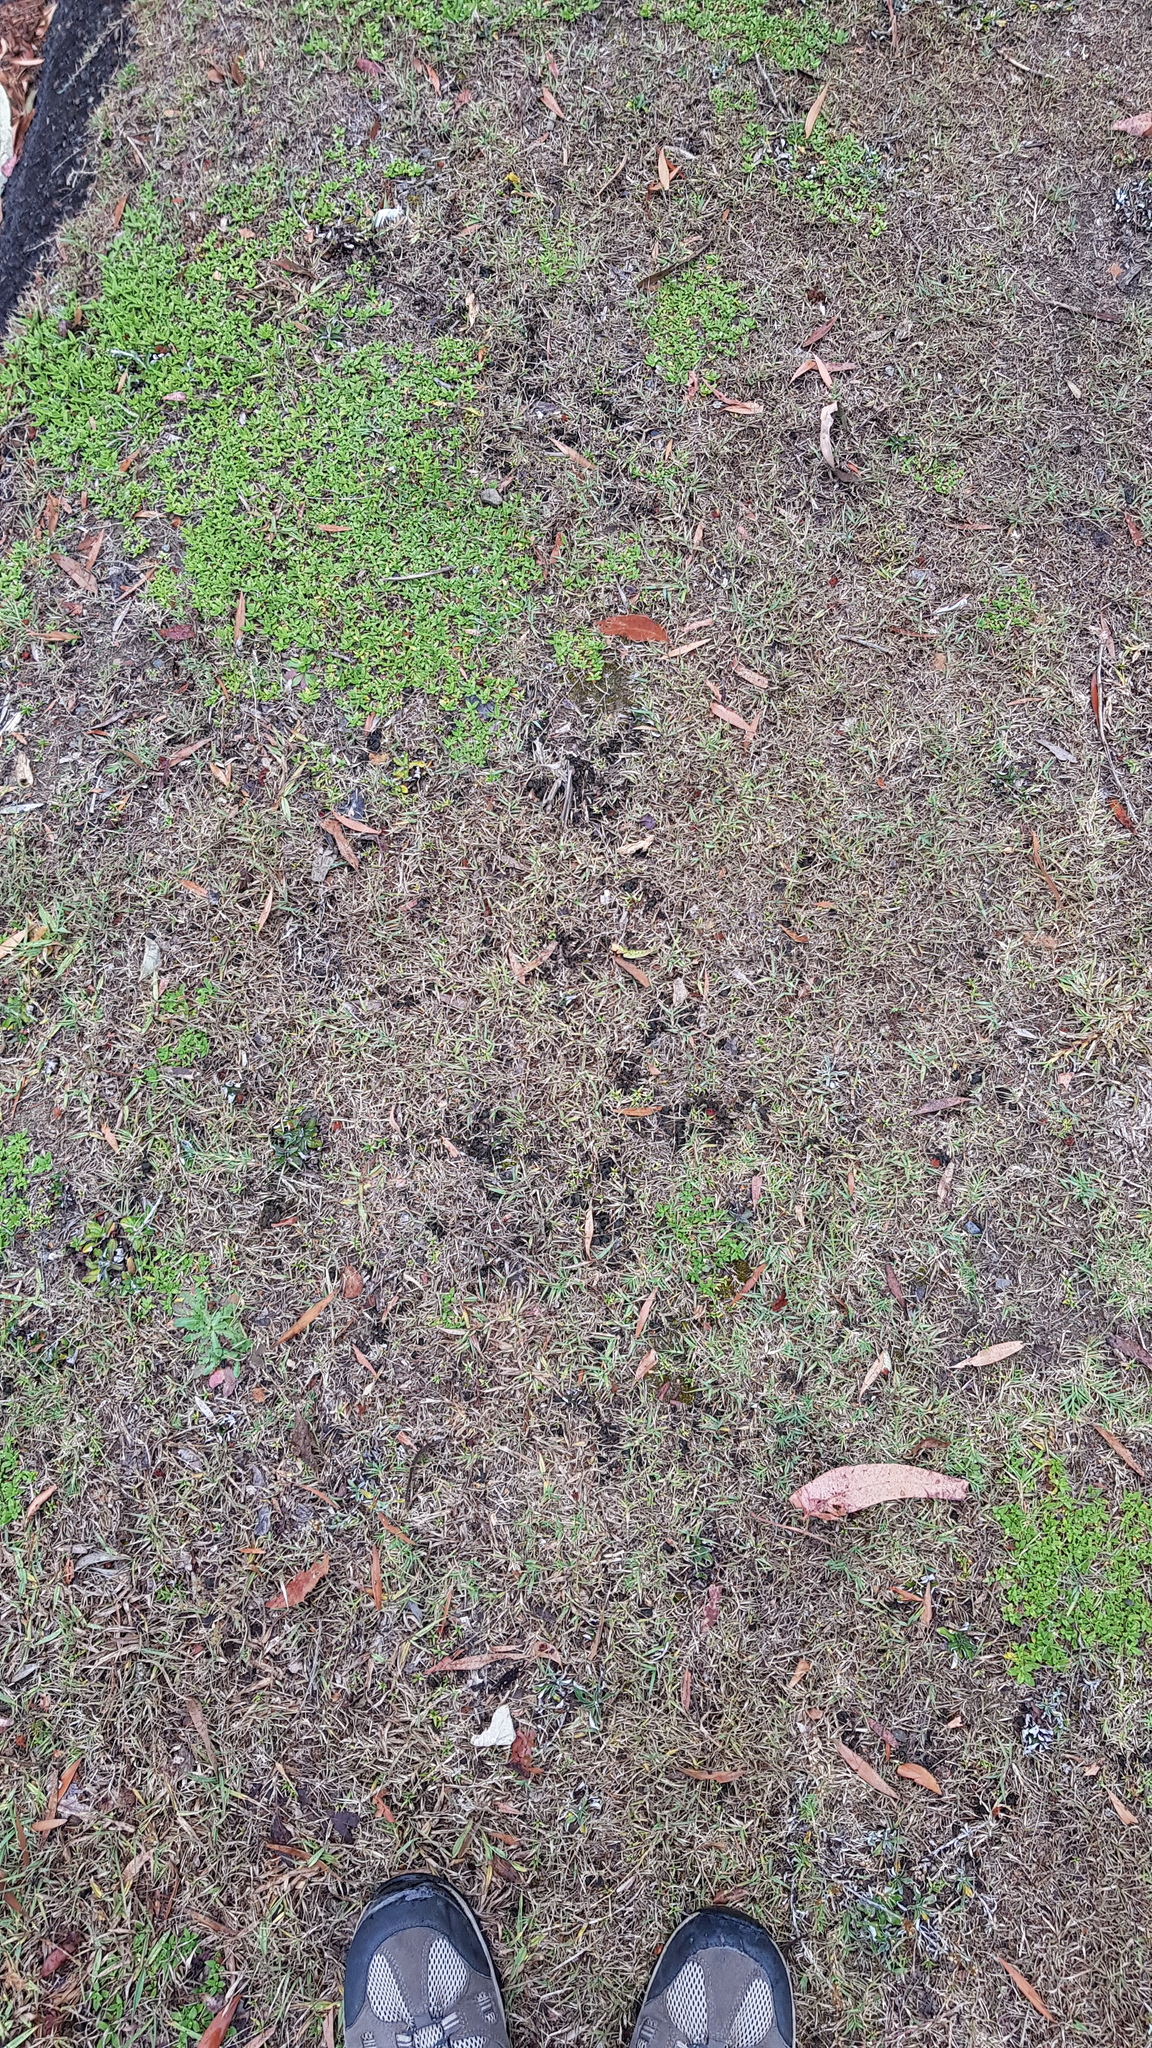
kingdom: Bacteria
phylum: Cyanobacteria
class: Cyanobacteriia
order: Cyanobacteriales
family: Nostocaceae
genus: Nostoc
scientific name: Nostoc commune
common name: Star jelly
